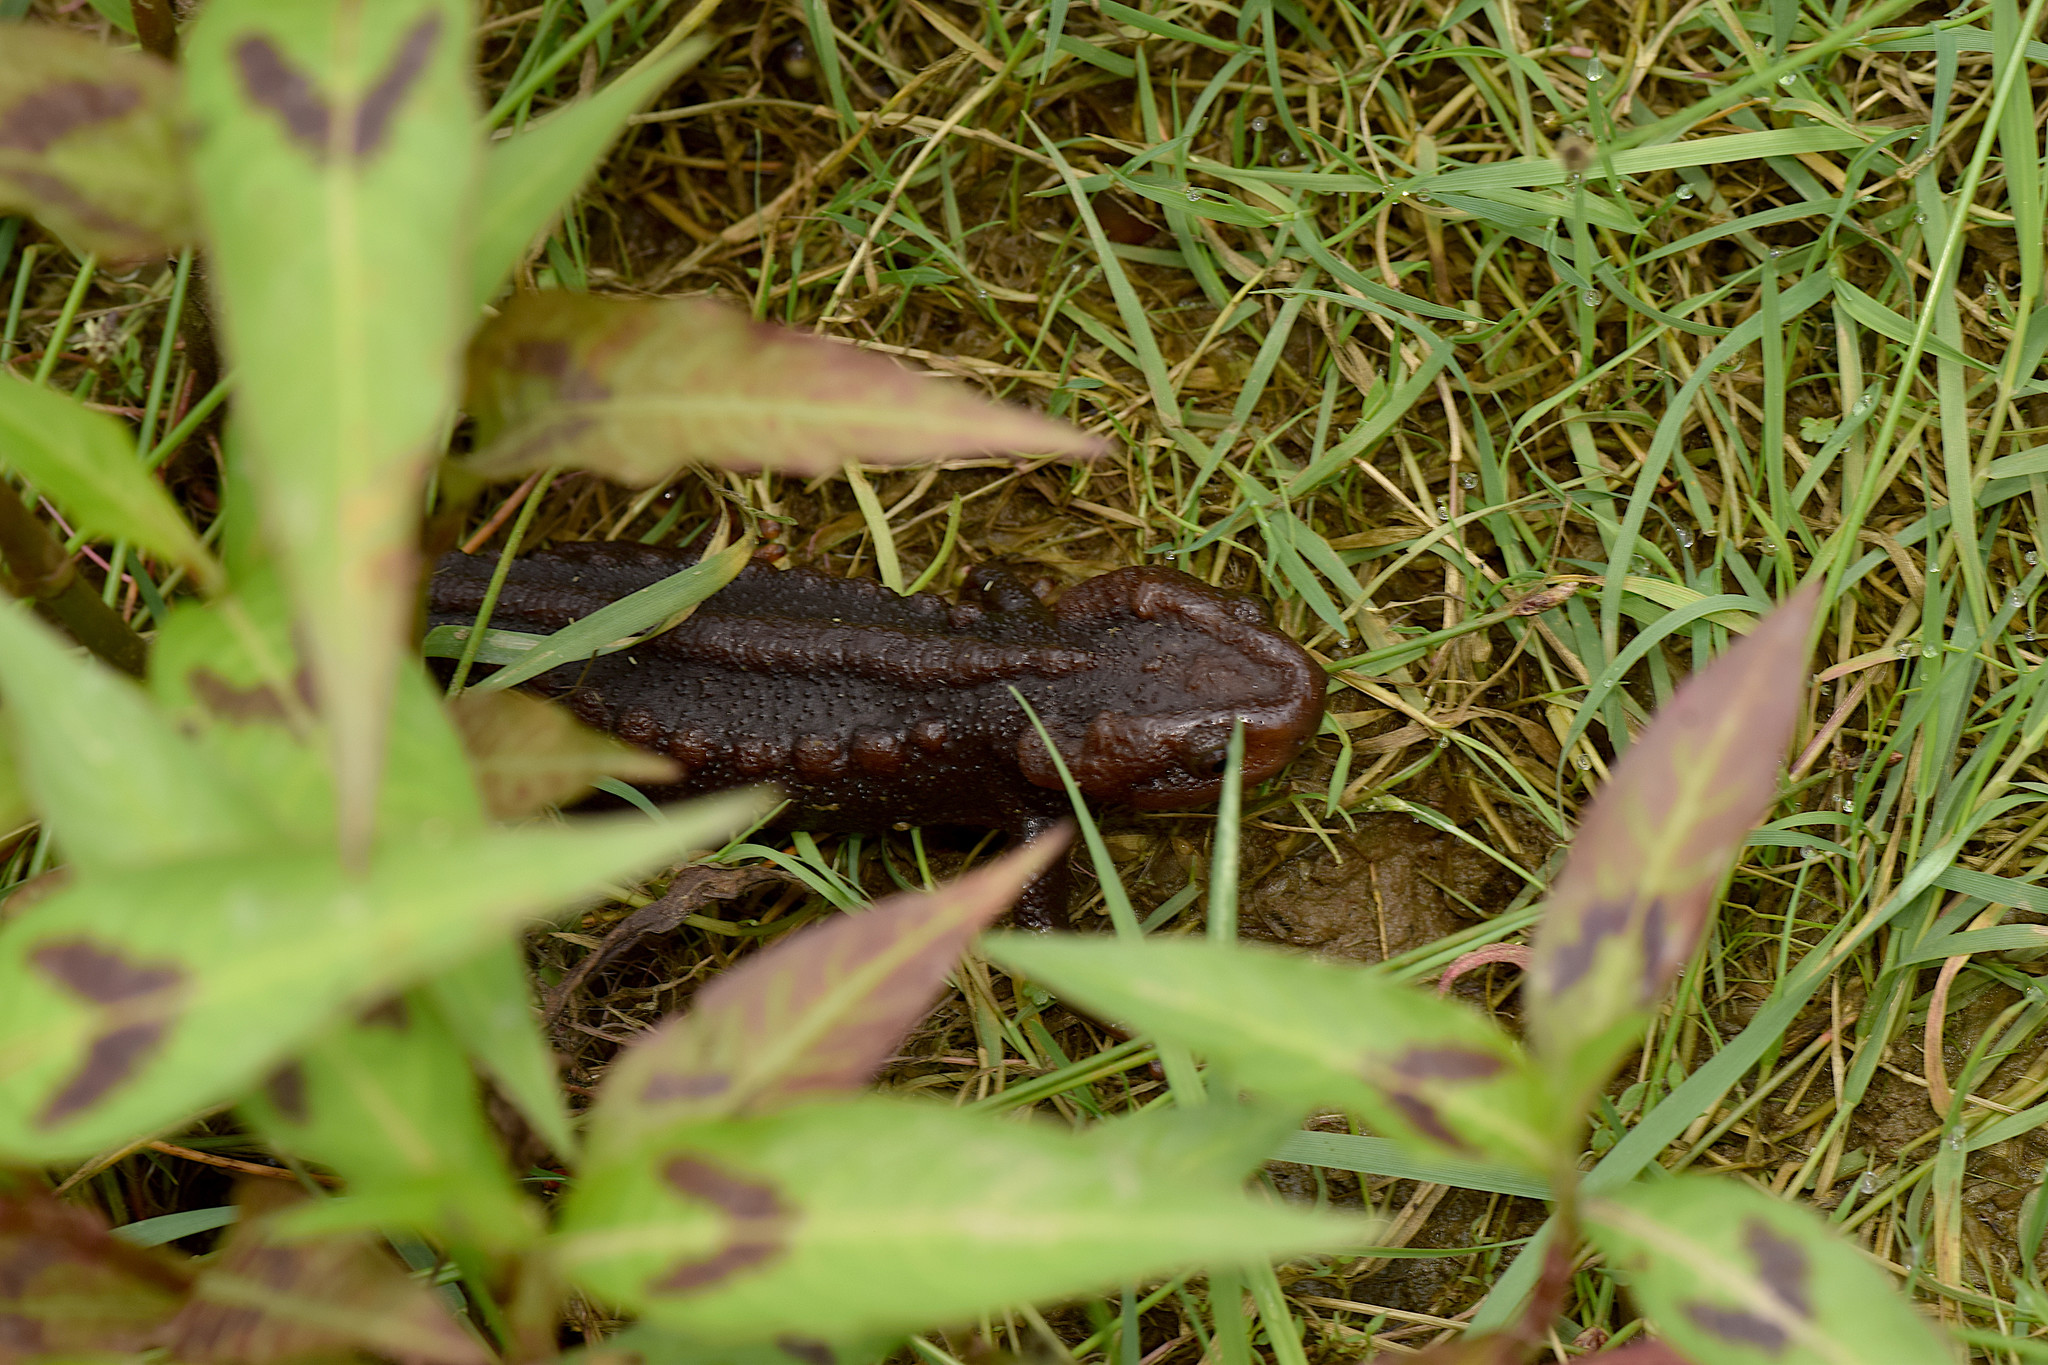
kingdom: Animalia
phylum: Chordata
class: Amphibia
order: Caudata
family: Salamandridae
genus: Tylototriton
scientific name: Tylototriton himalayanus
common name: Himalayan crocodile newt
